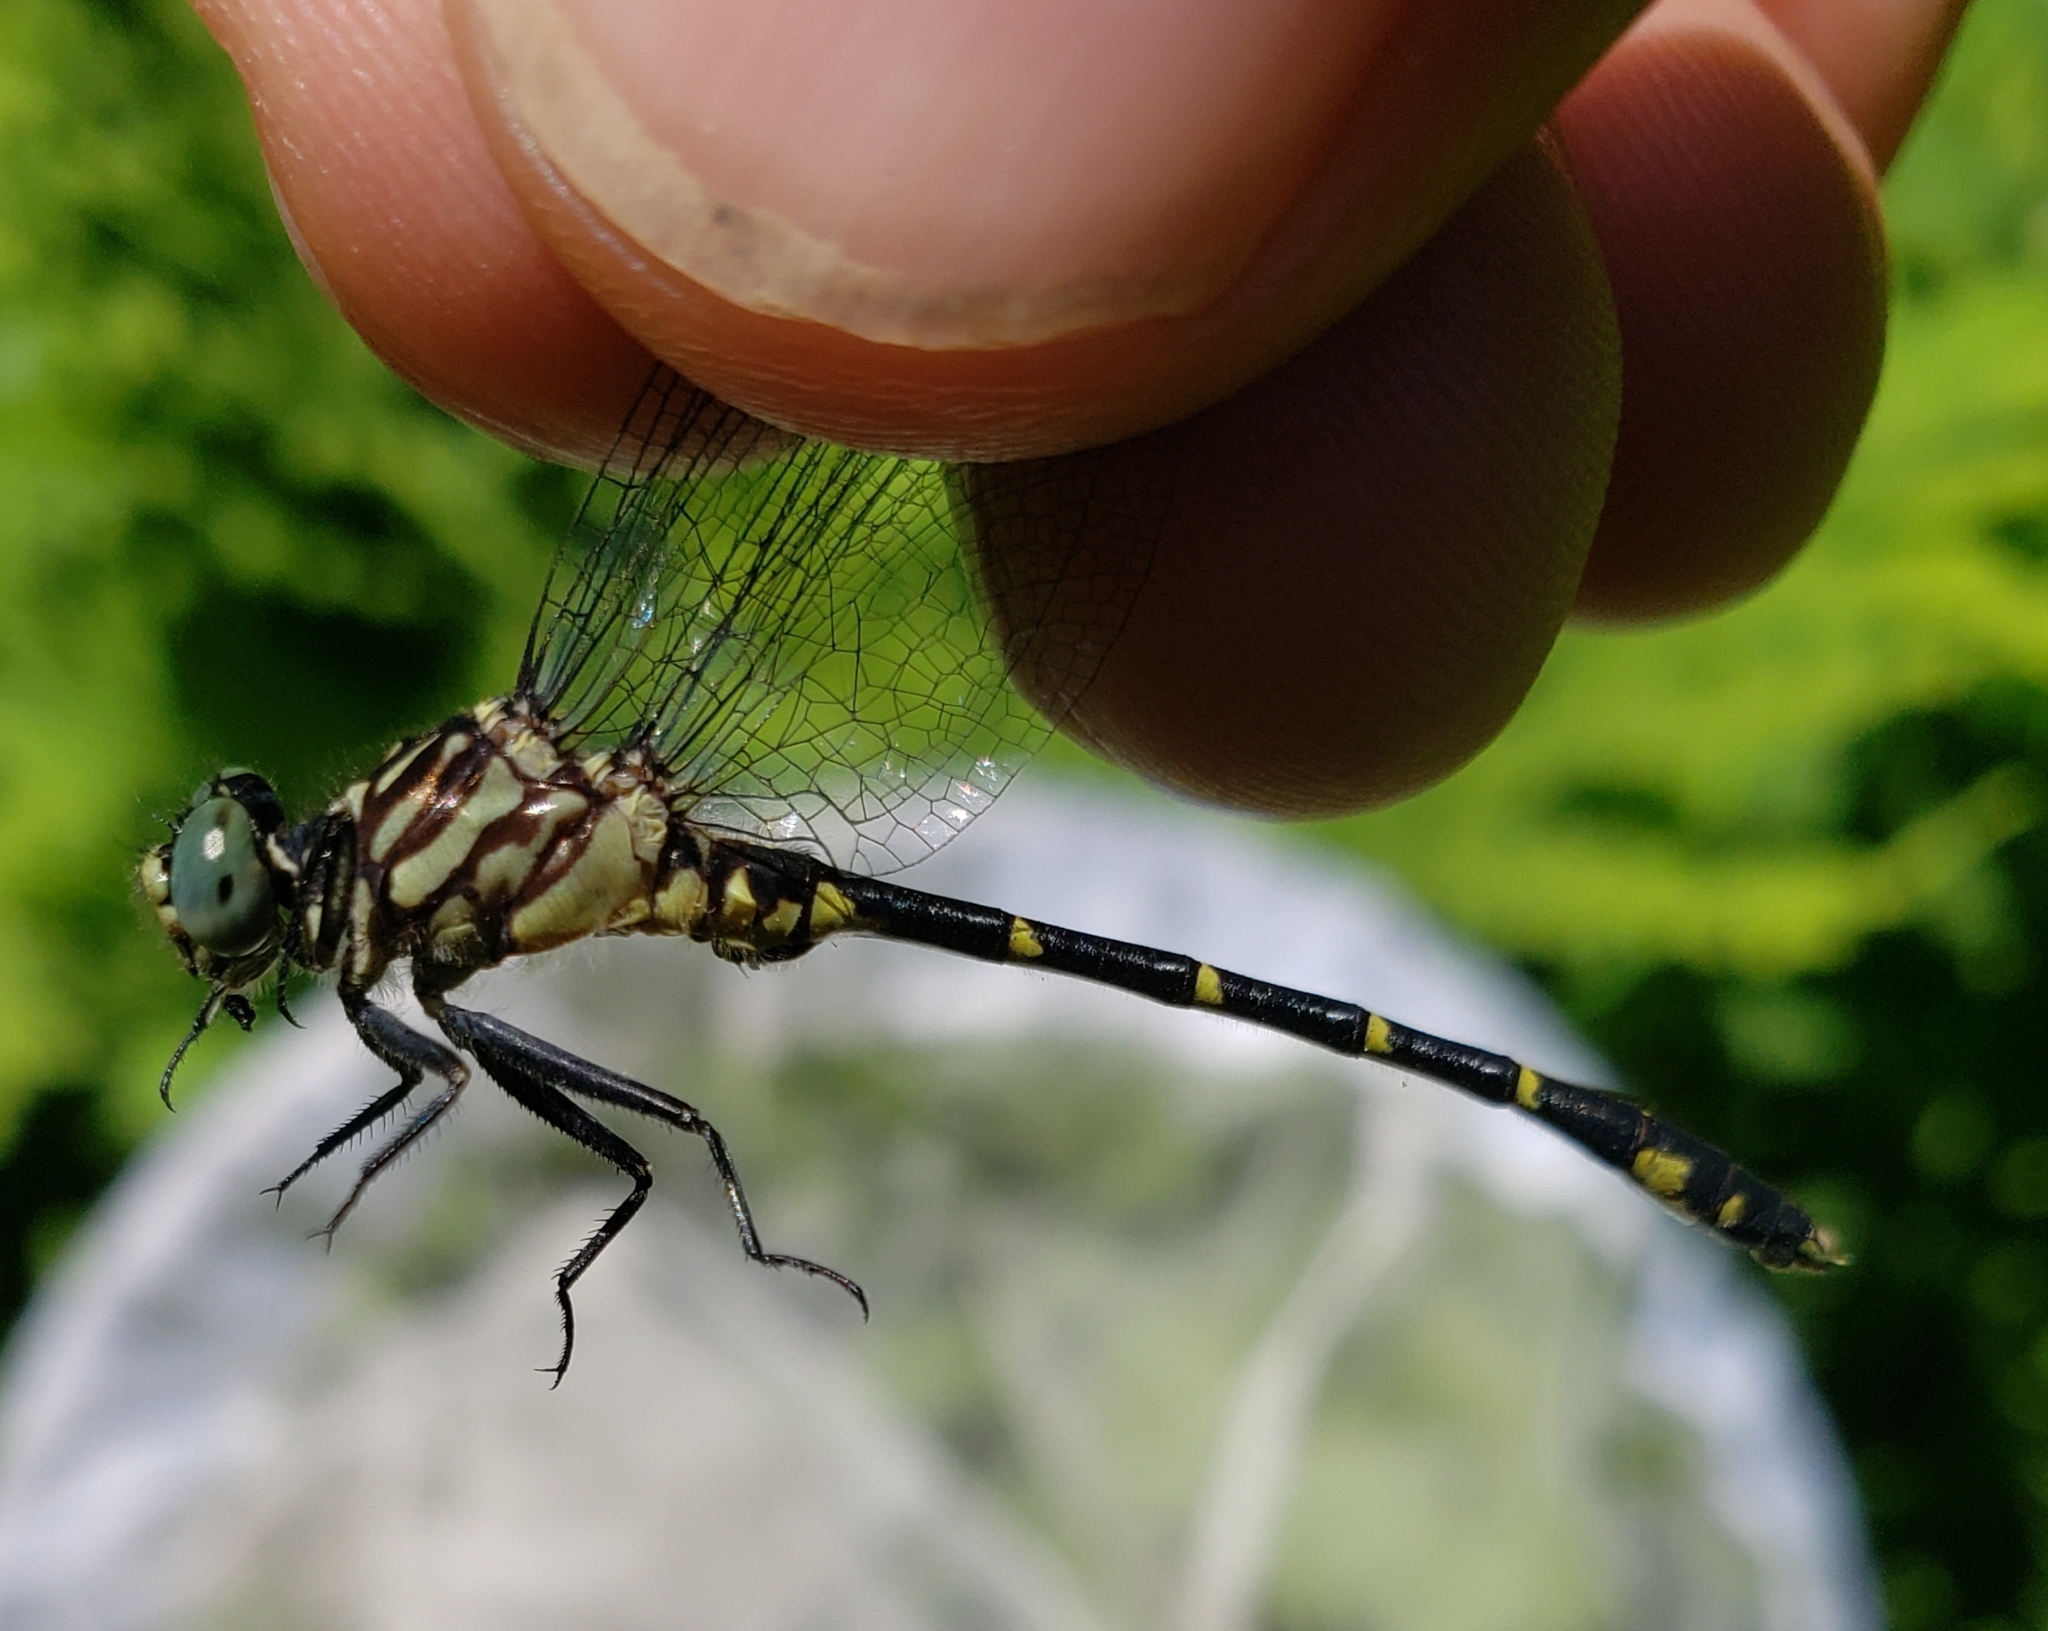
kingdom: Animalia
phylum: Arthropoda
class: Insecta
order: Odonata
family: Gomphidae
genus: Stylogomphus
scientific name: Stylogomphus albistylus
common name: Eastern least clubtail
